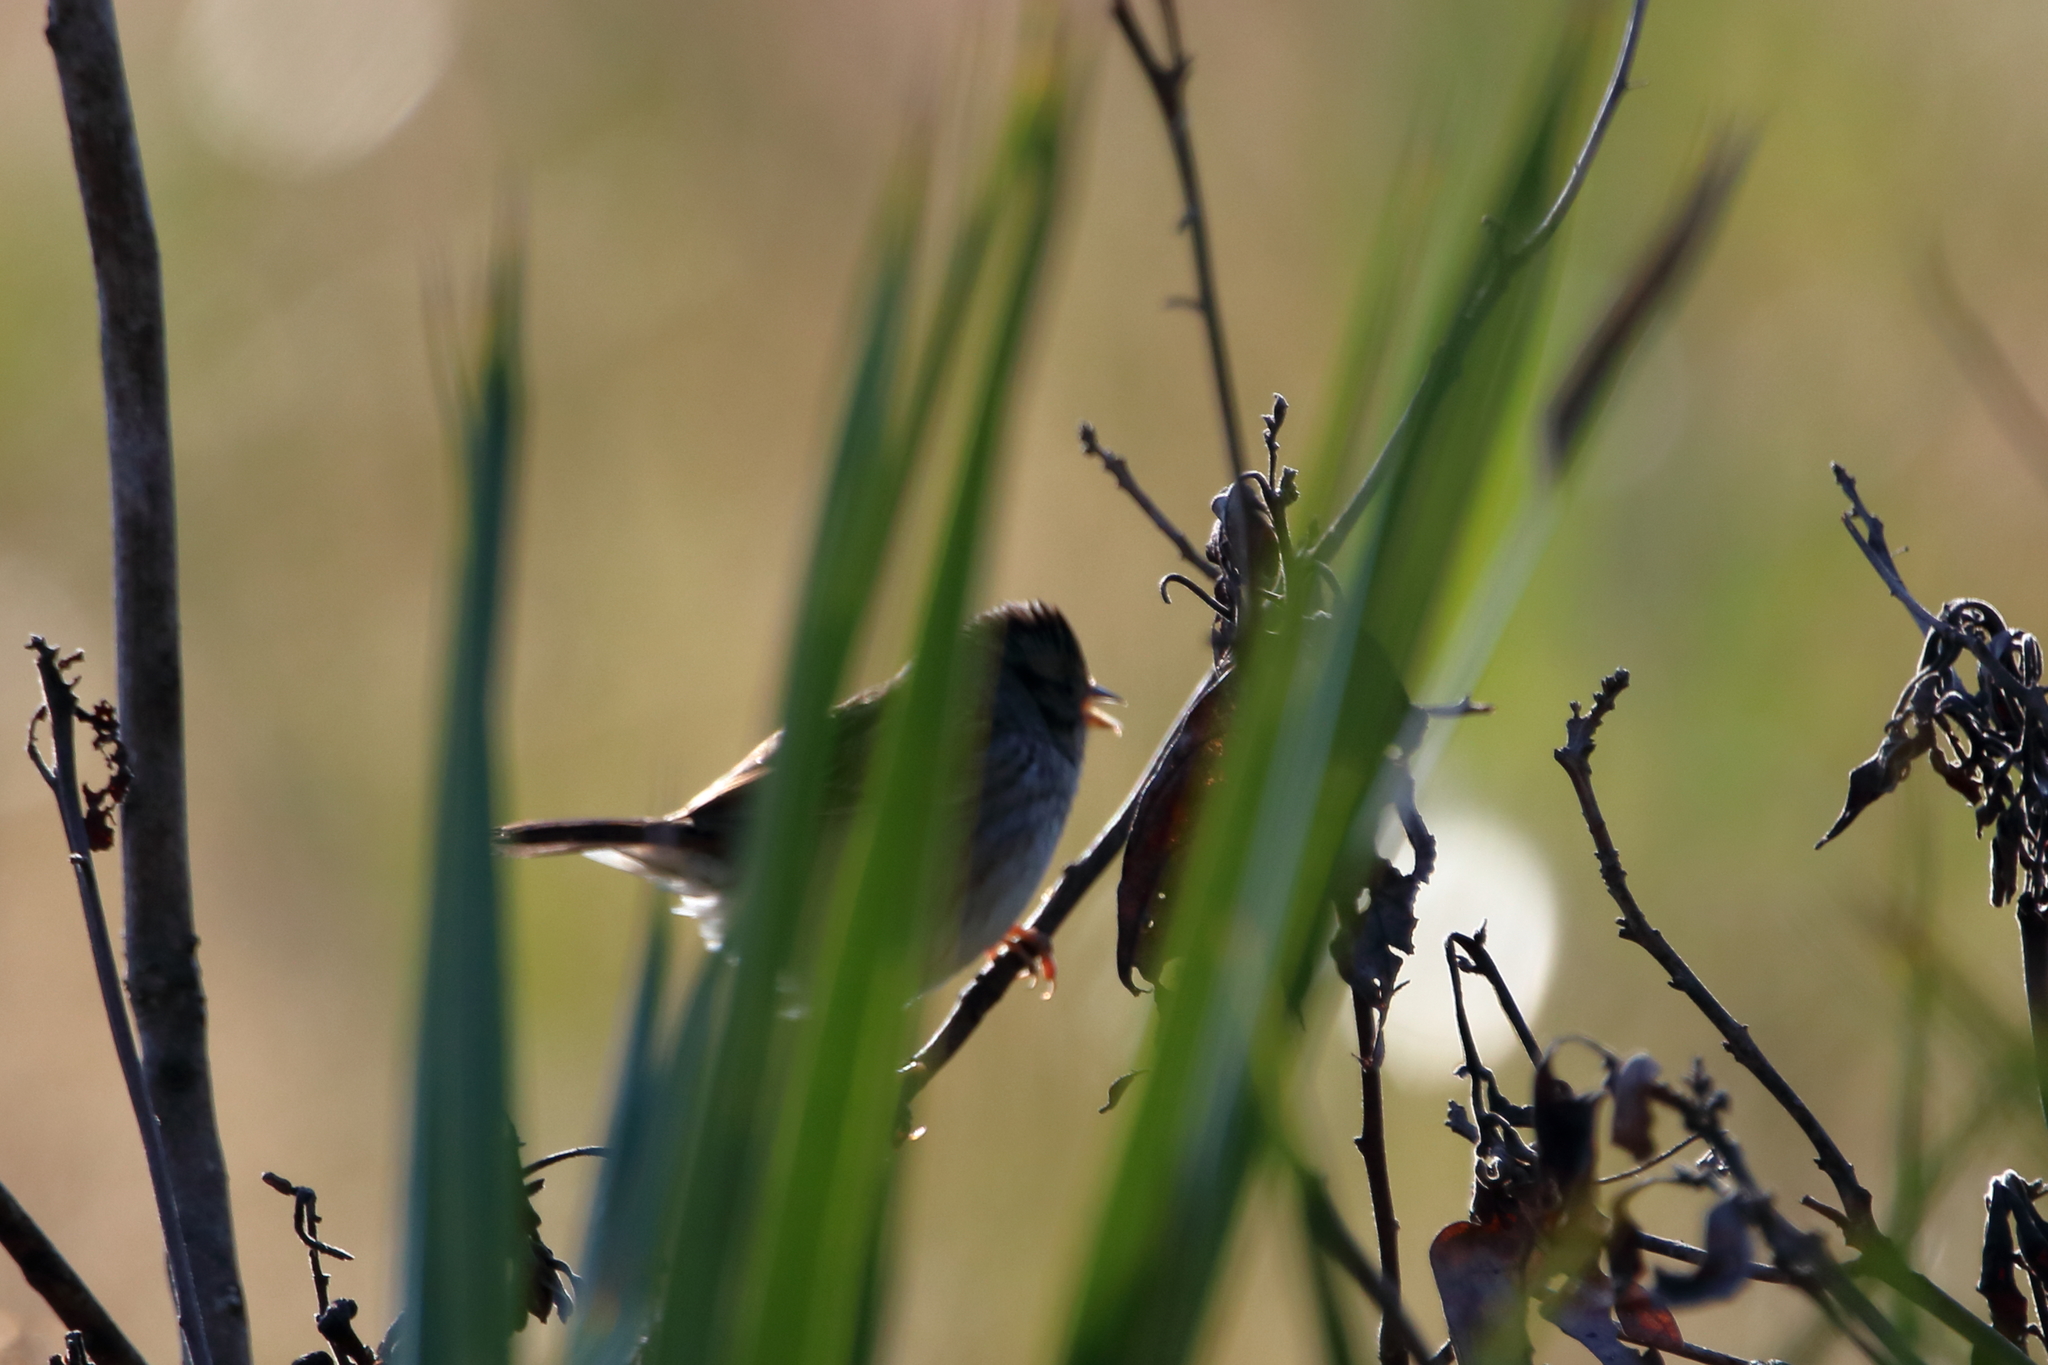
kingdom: Animalia
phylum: Chordata
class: Aves
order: Passeriformes
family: Passerellidae
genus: Melospiza
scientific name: Melospiza georgiana
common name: Swamp sparrow
